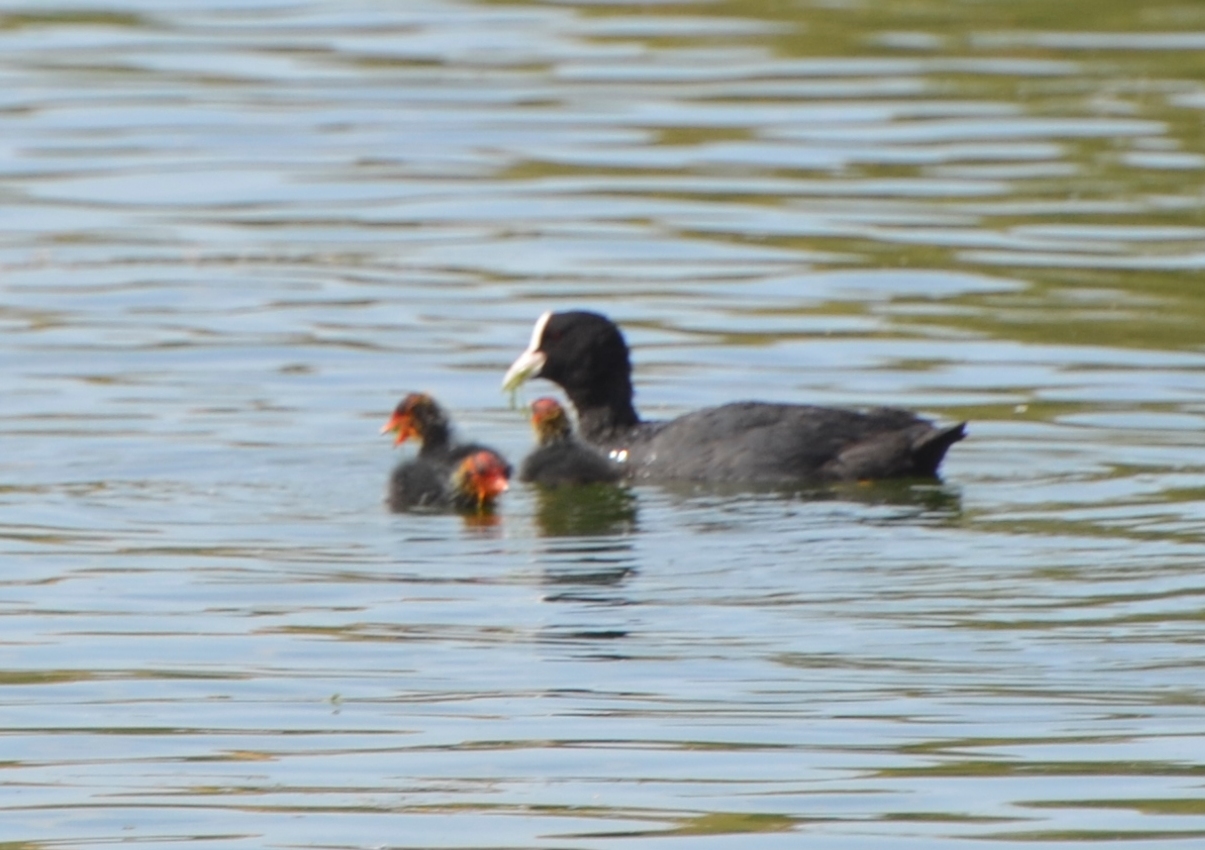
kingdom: Animalia
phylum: Chordata
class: Aves
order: Gruiformes
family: Rallidae
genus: Fulica
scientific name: Fulica atra
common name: Eurasian coot
